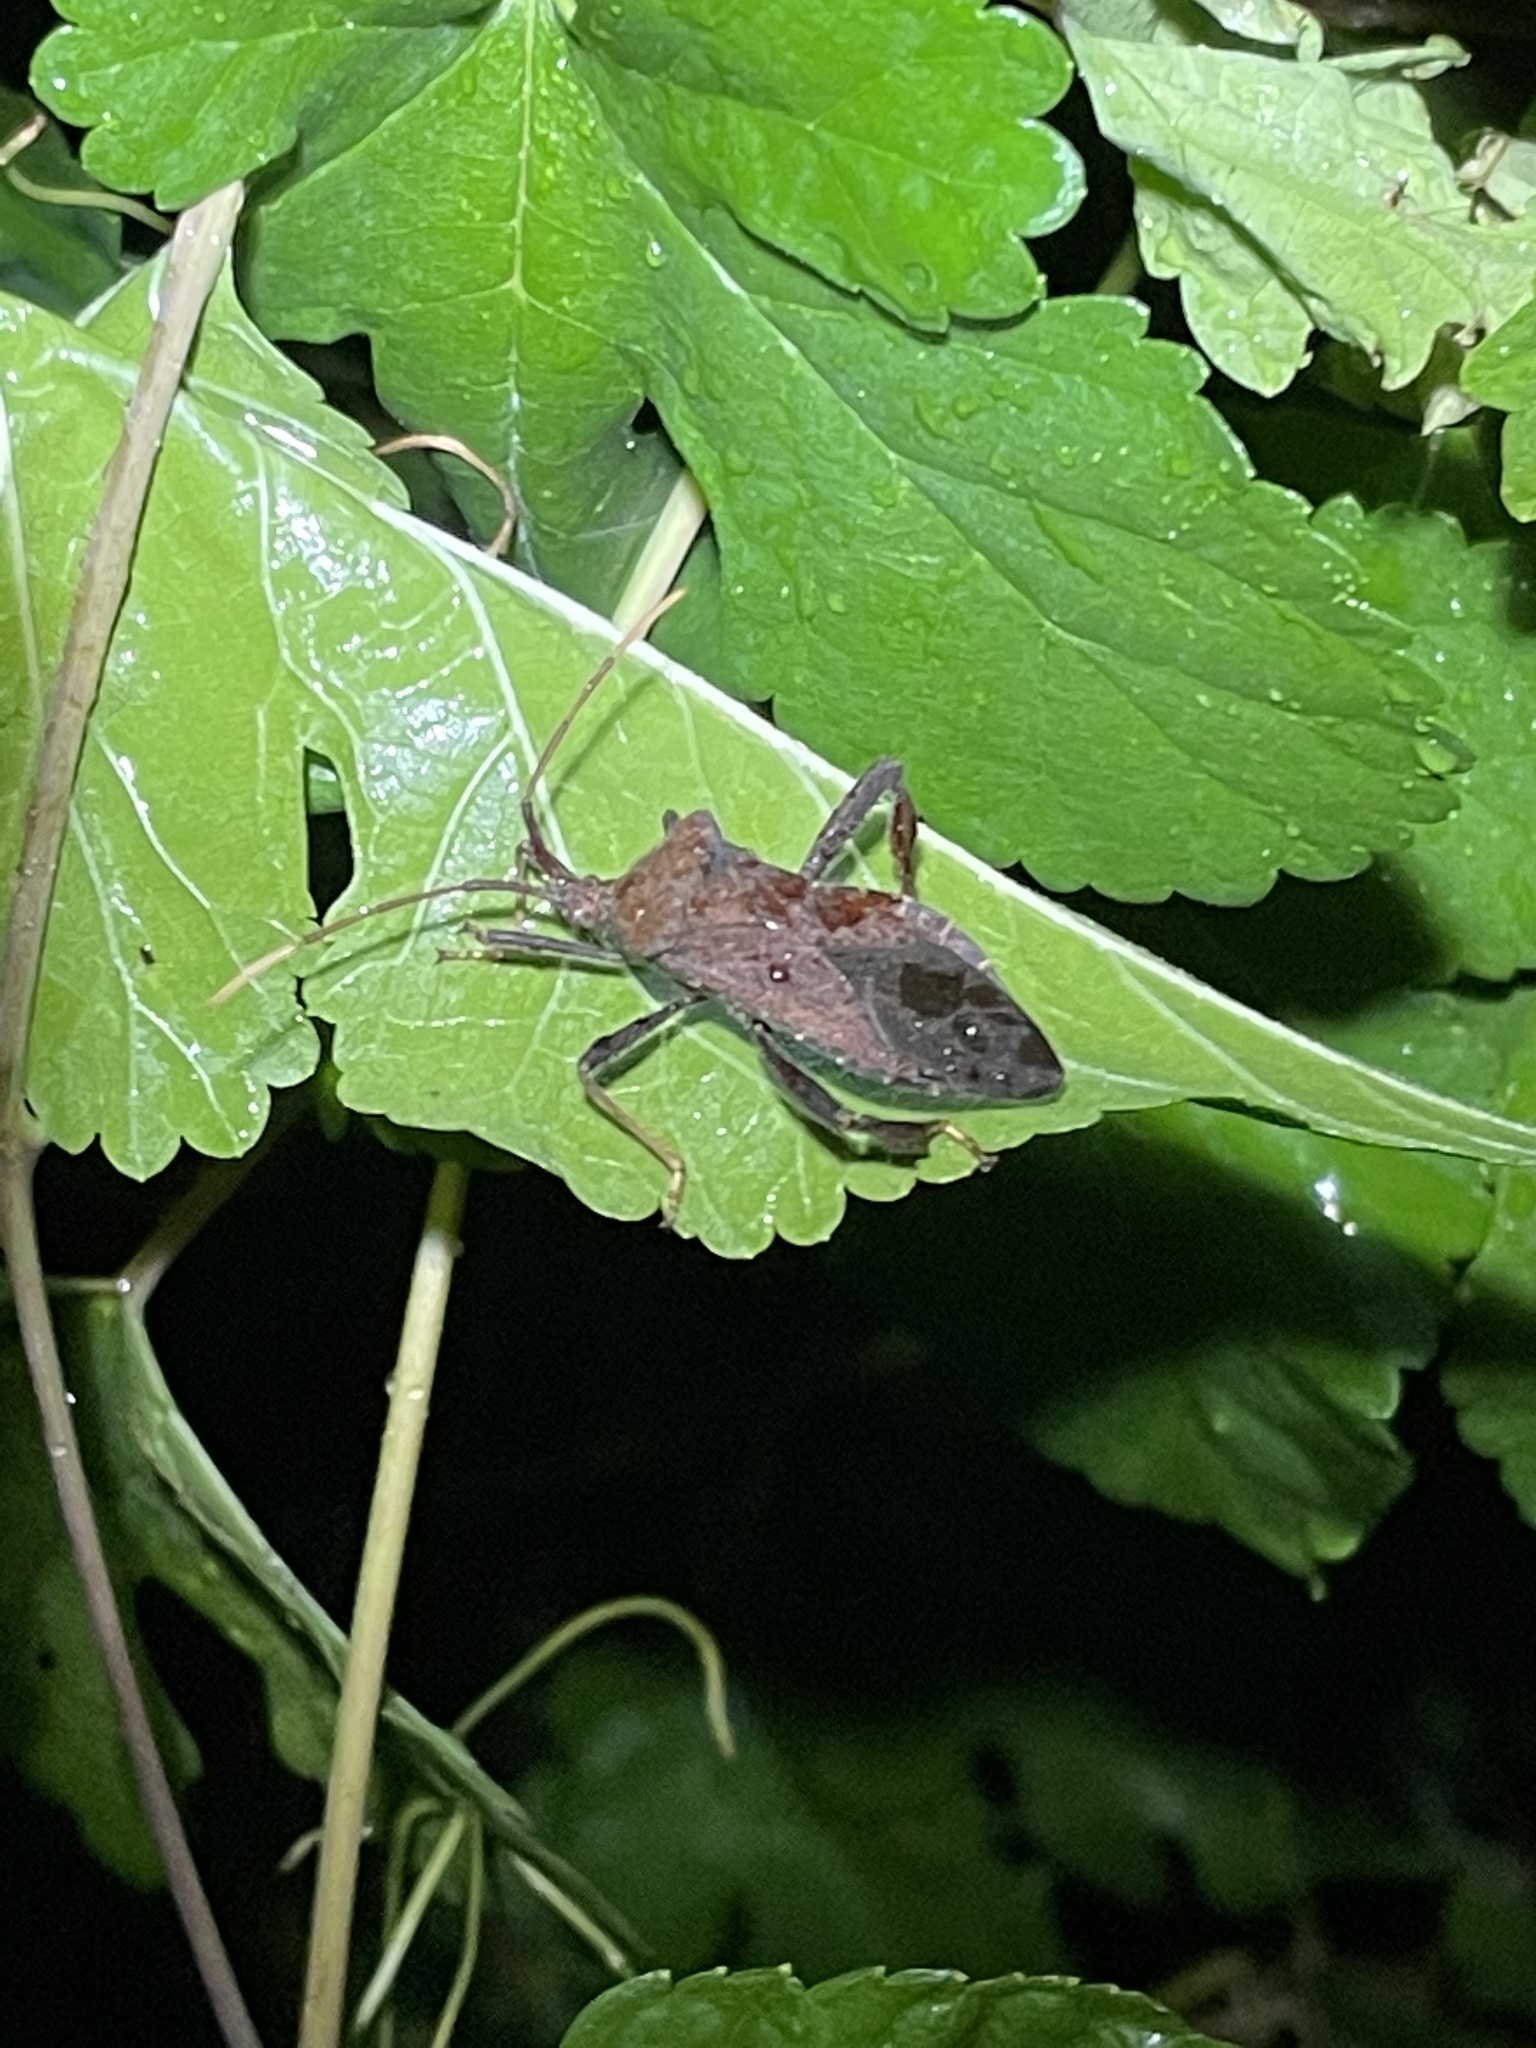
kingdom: Animalia
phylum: Arthropoda
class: Insecta
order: Hemiptera
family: Coreidae
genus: Acanthocephala
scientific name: Acanthocephala terminalis
